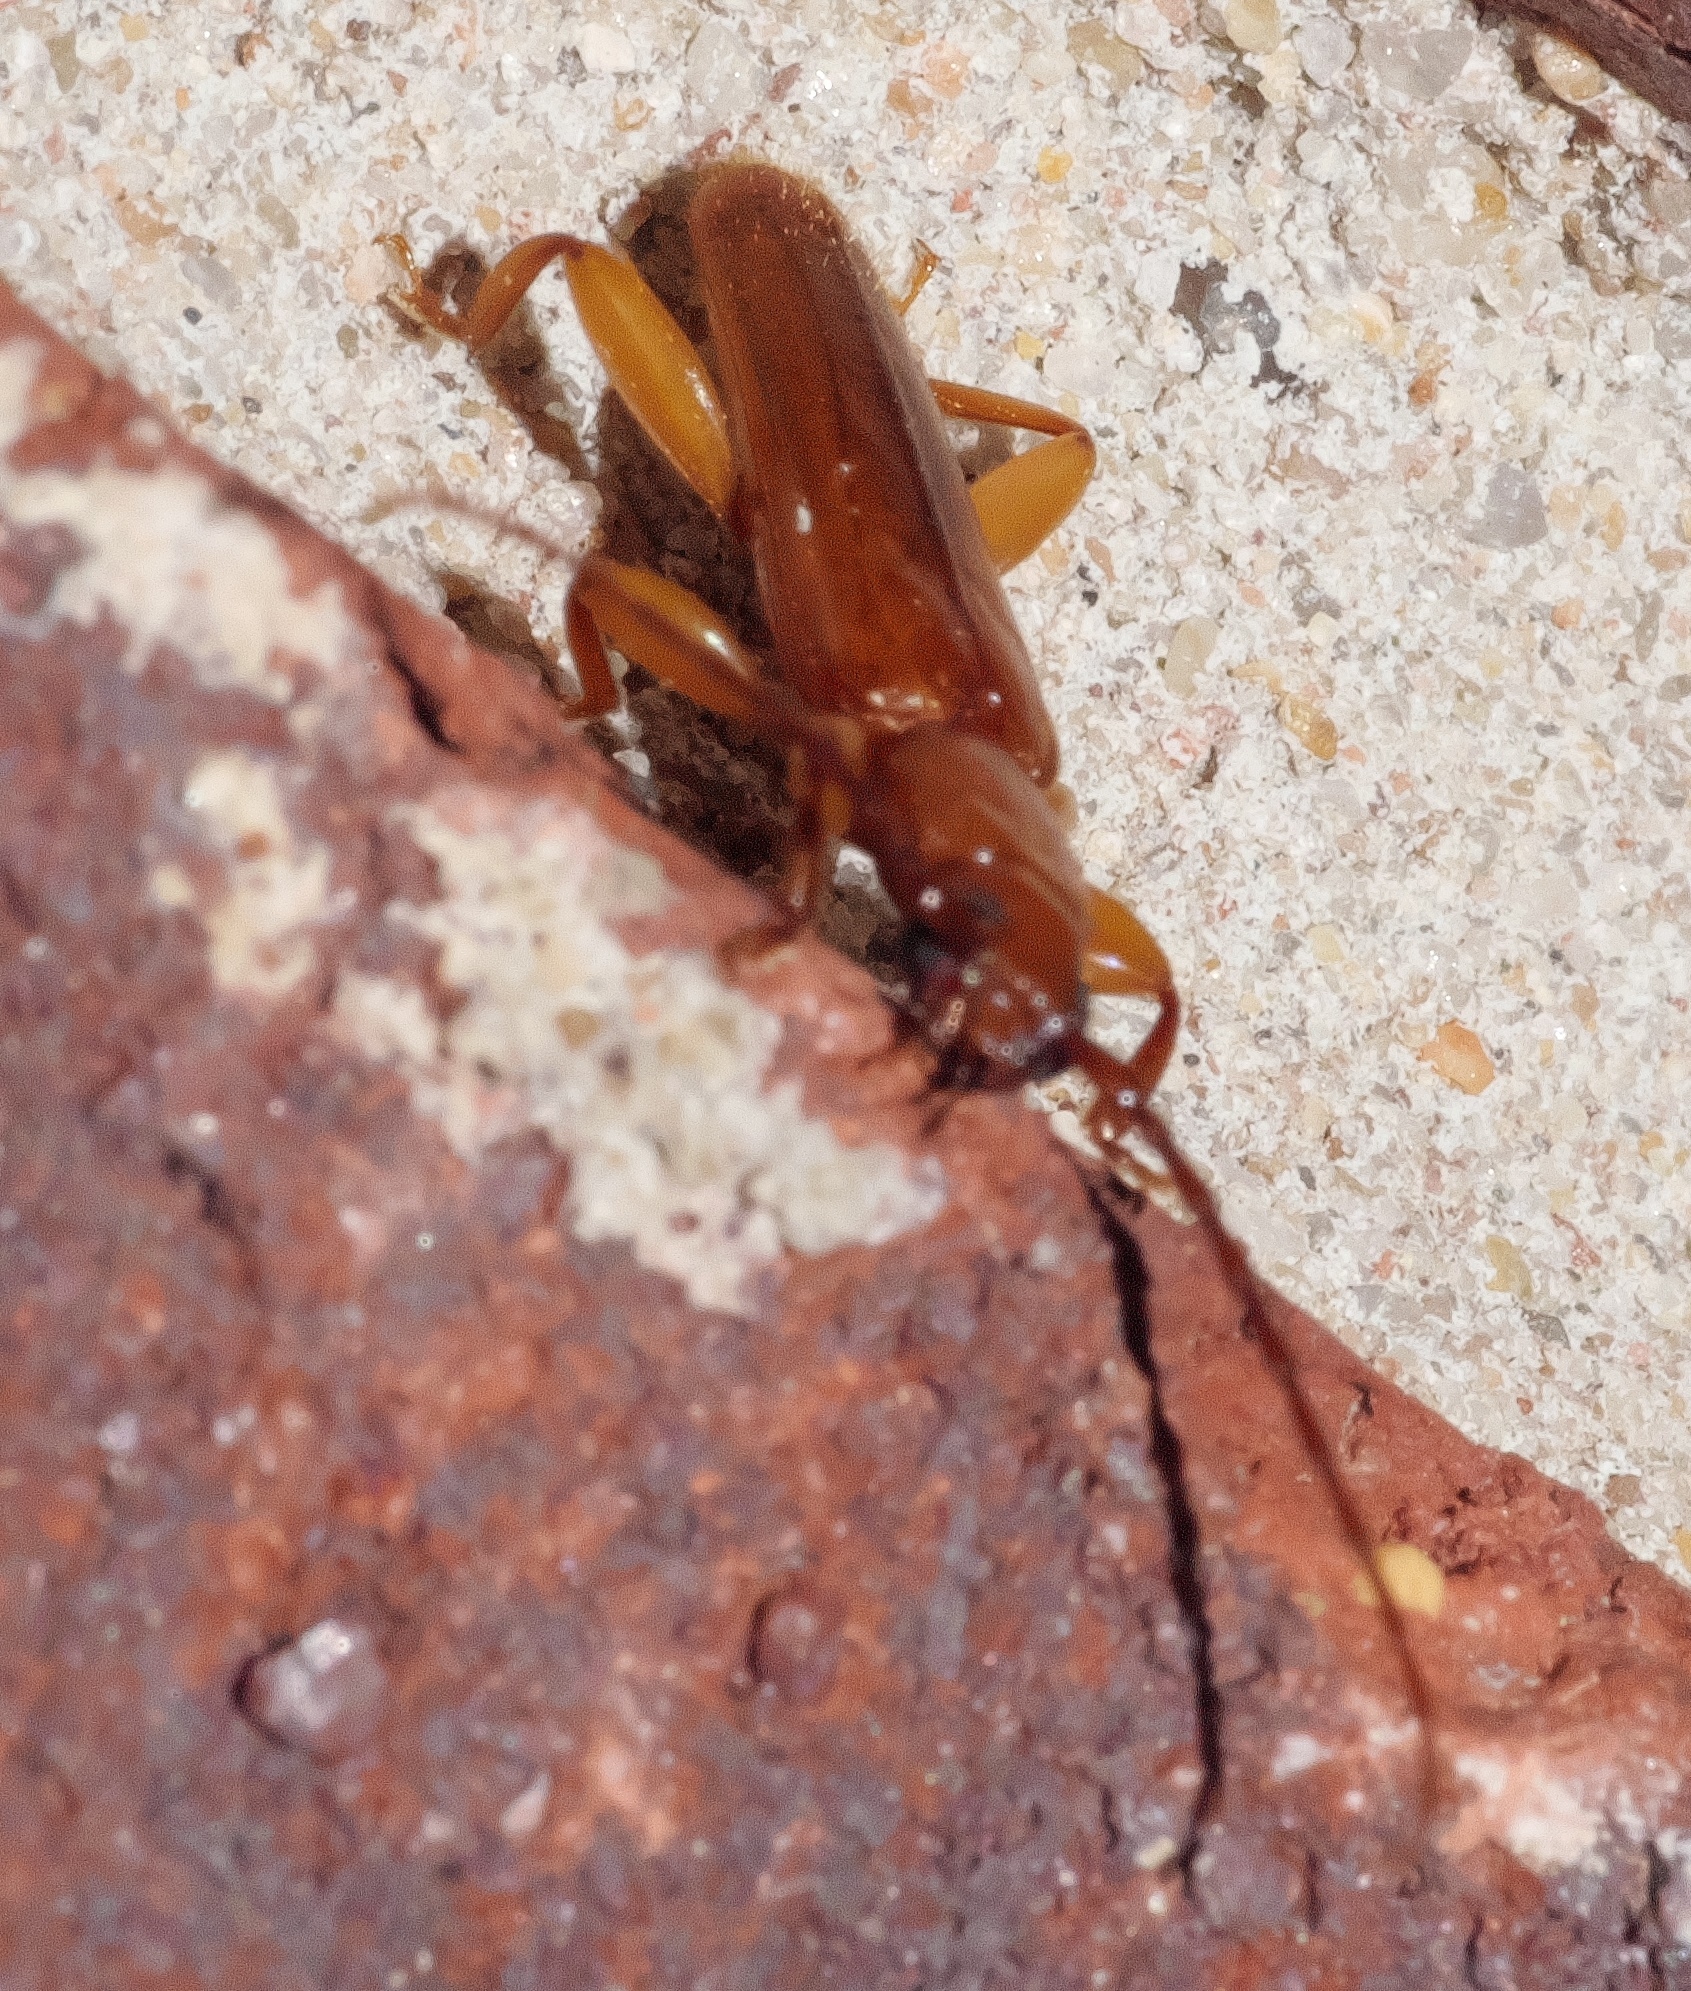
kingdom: Animalia
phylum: Arthropoda
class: Insecta
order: Coleoptera
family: Cerambycidae
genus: Smodicum
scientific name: Smodicum cucujiforme
